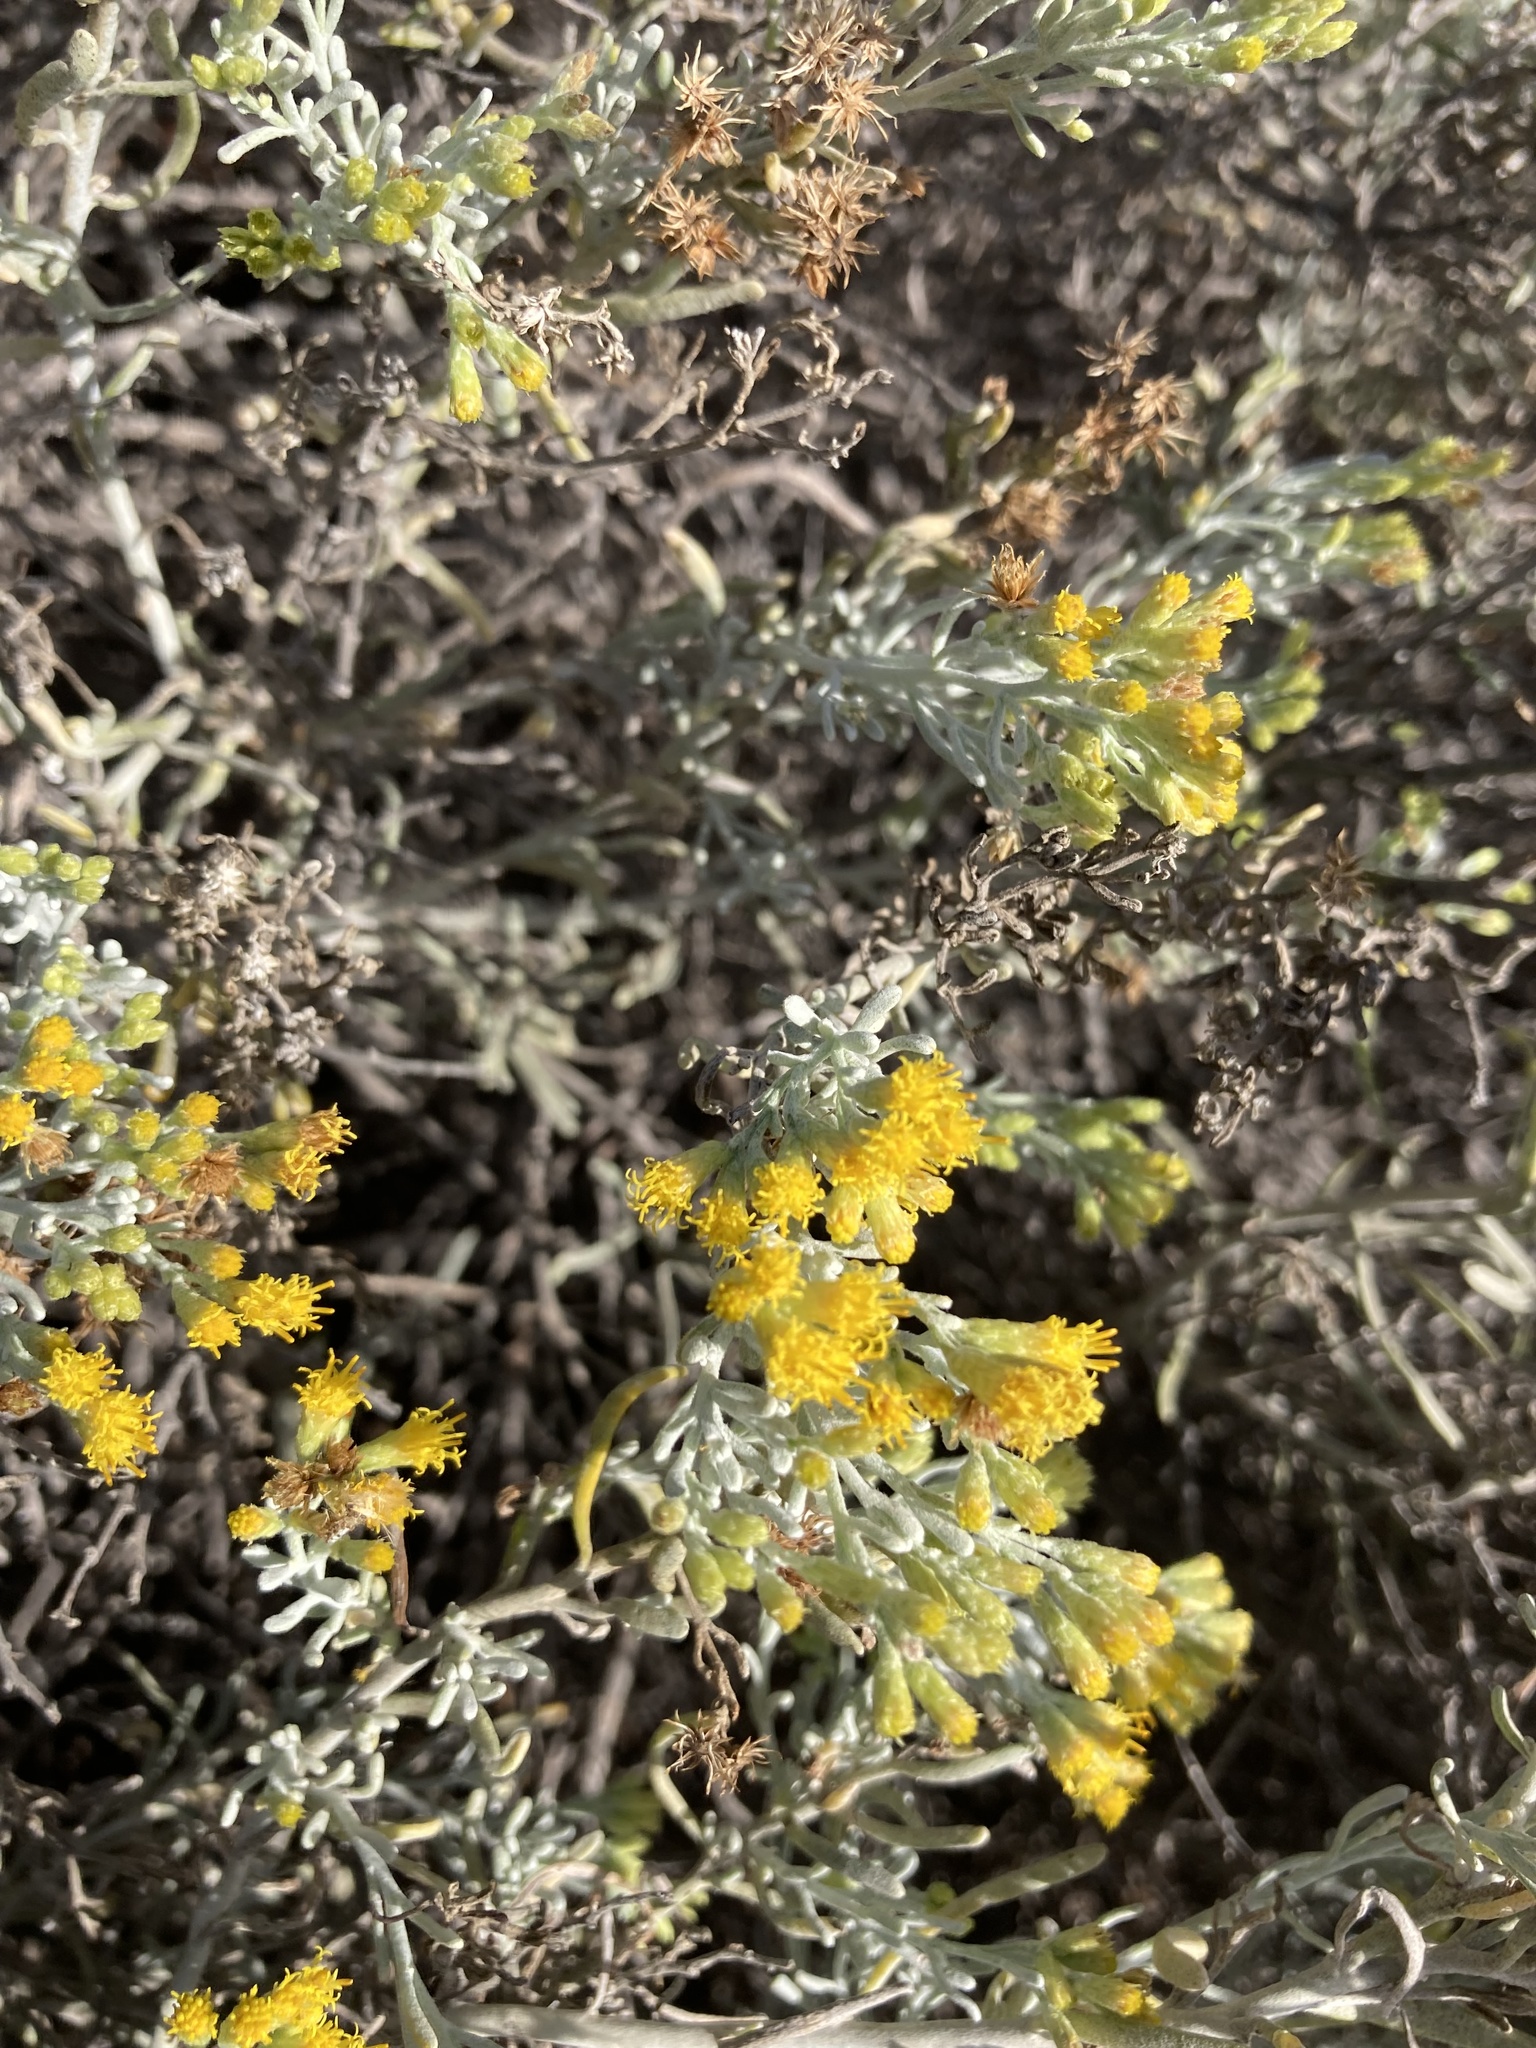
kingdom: Plantae
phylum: Tracheophyta
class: Magnoliopsida
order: Asterales
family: Asteraceae
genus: Schizogyne
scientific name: Schizogyne sericea
